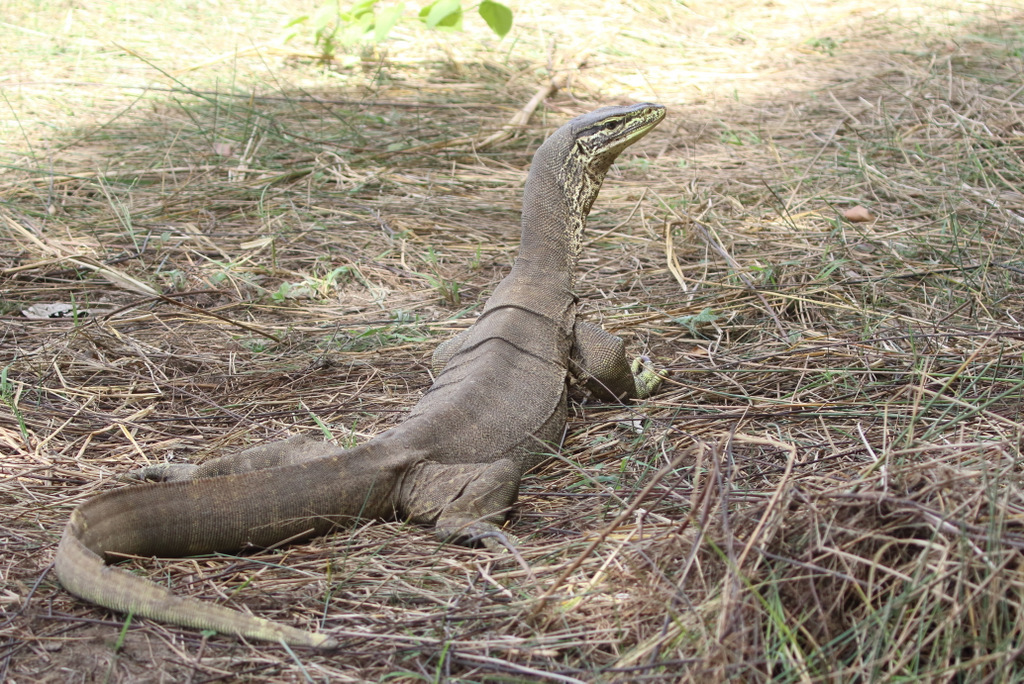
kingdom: Animalia
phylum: Chordata
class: Squamata
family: Varanidae
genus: Varanus
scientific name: Varanus panoptes
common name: Yellow-spotted monitor
